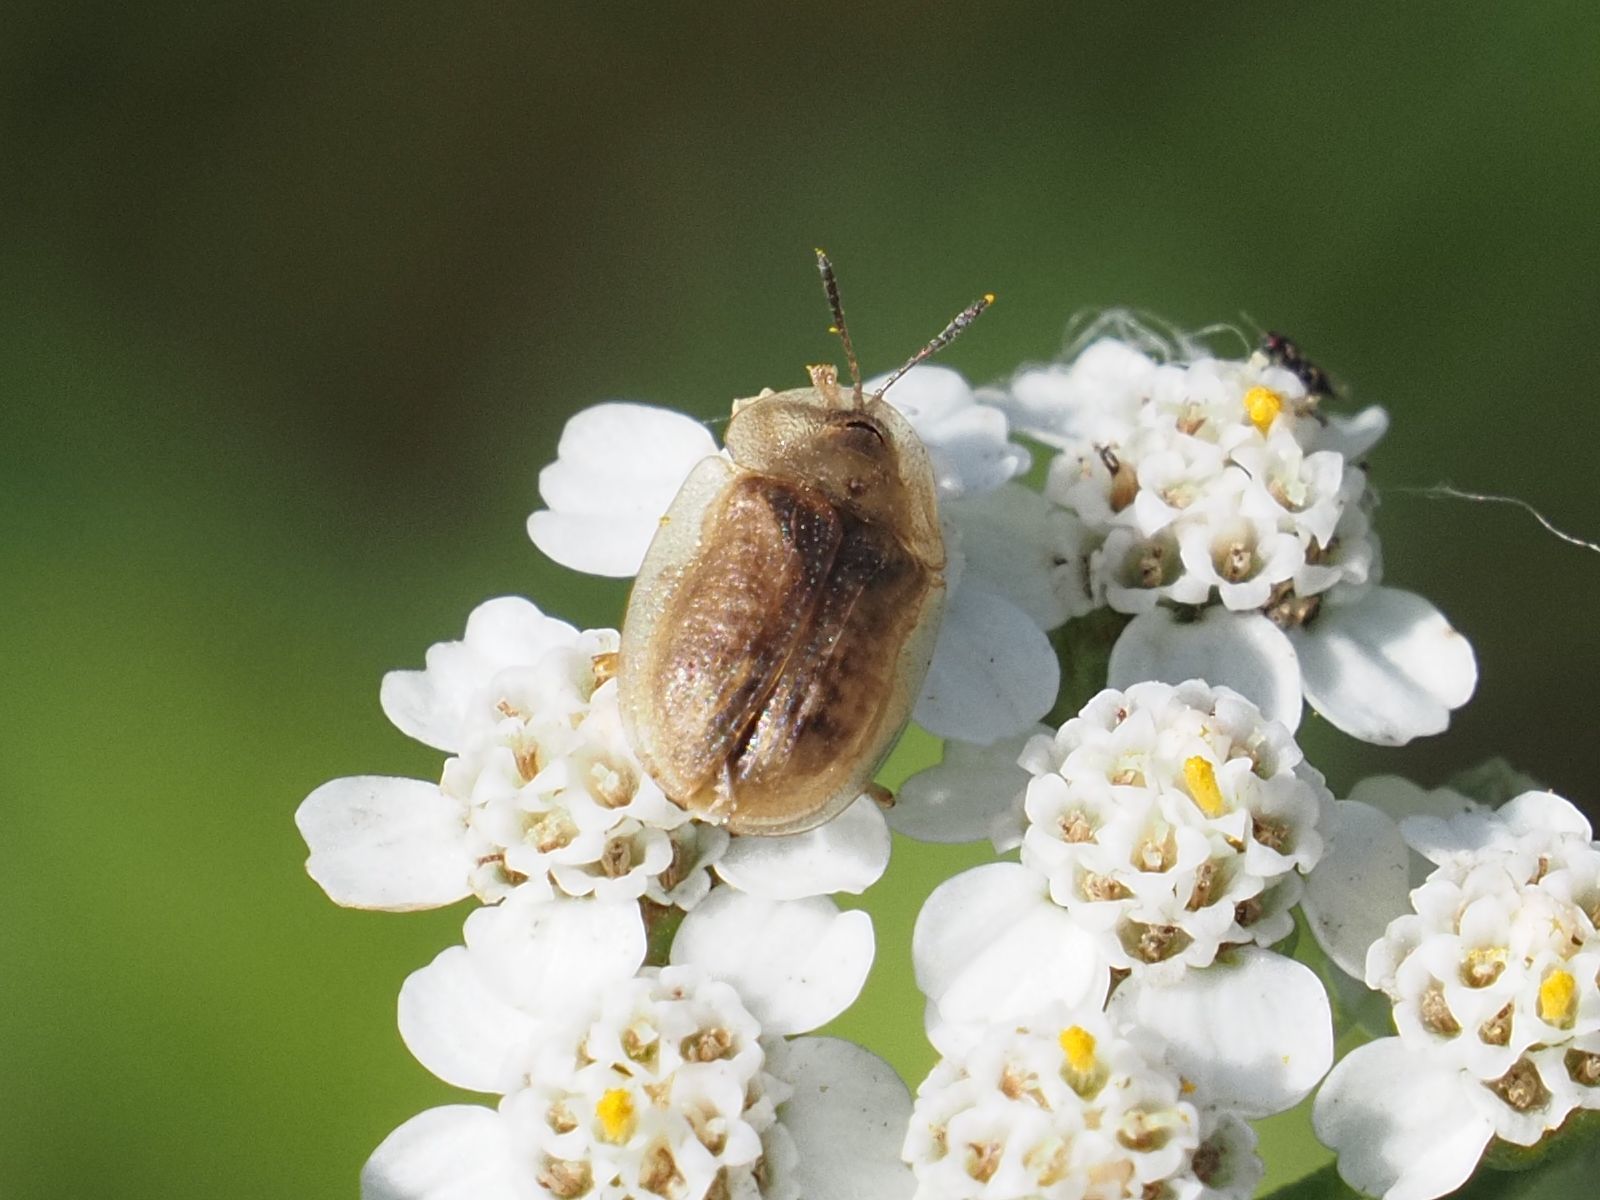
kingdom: Animalia
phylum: Arthropoda
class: Insecta
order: Coleoptera
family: Chrysomelidae
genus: Cassida
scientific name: Cassida flaveola
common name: Pale tortoise beetle
